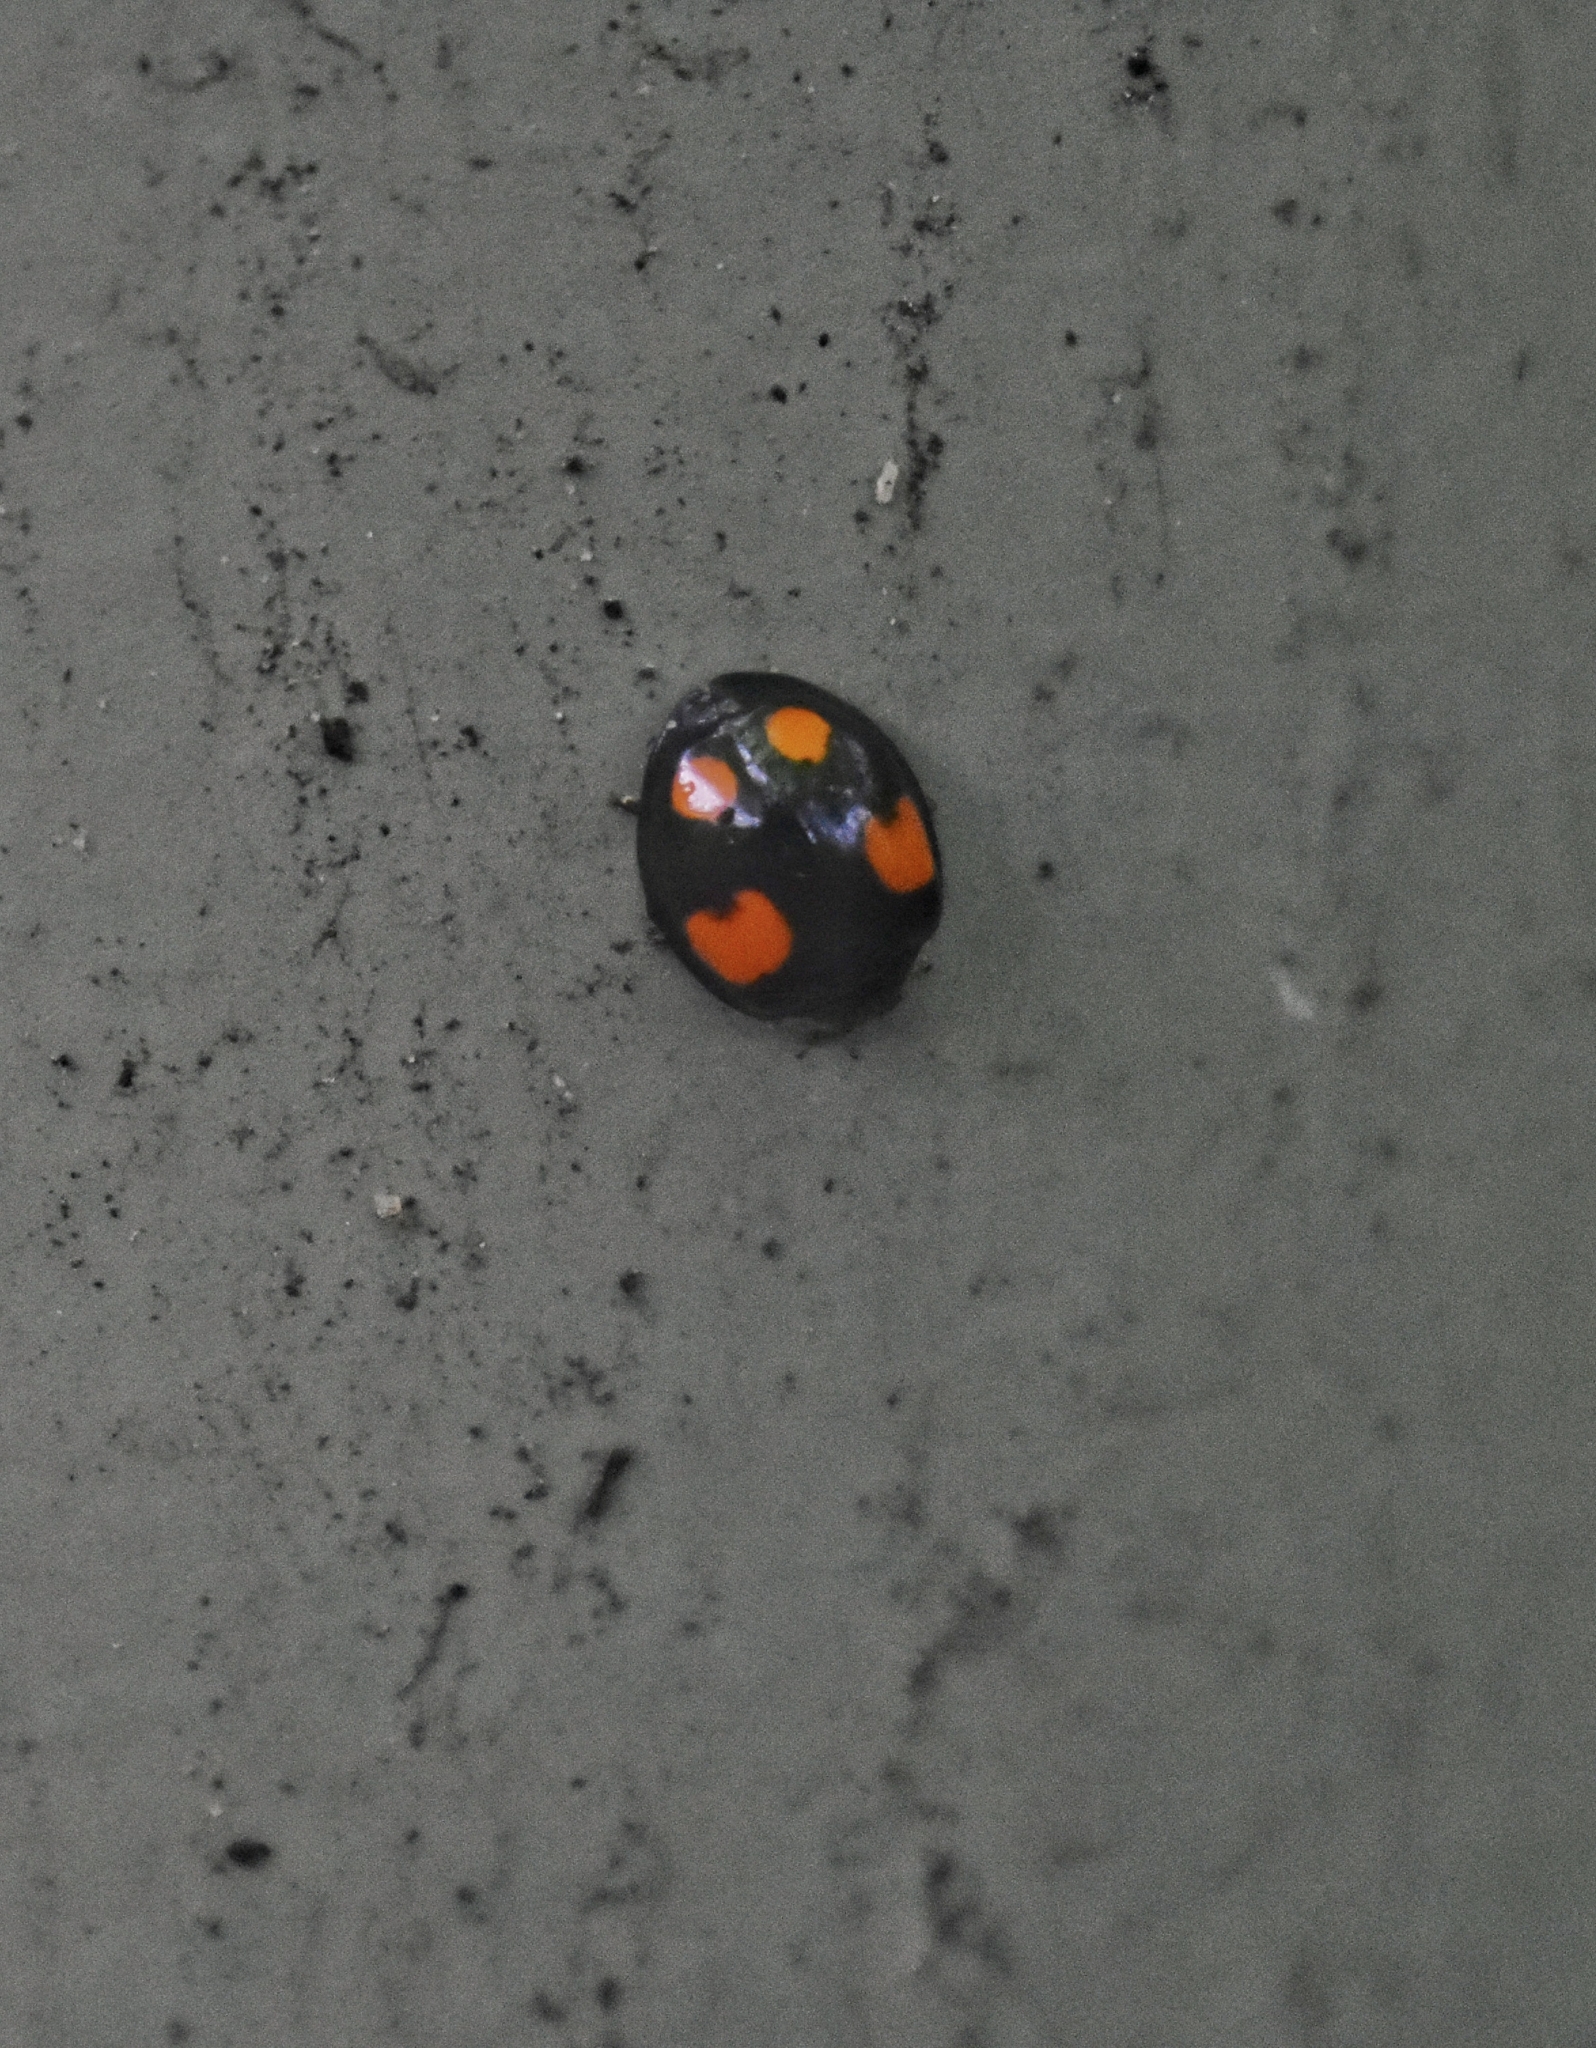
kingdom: Animalia
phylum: Arthropoda
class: Insecta
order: Coleoptera
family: Coccinellidae
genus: Harmonia
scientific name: Harmonia axyridis
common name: Harlequin ladybird
